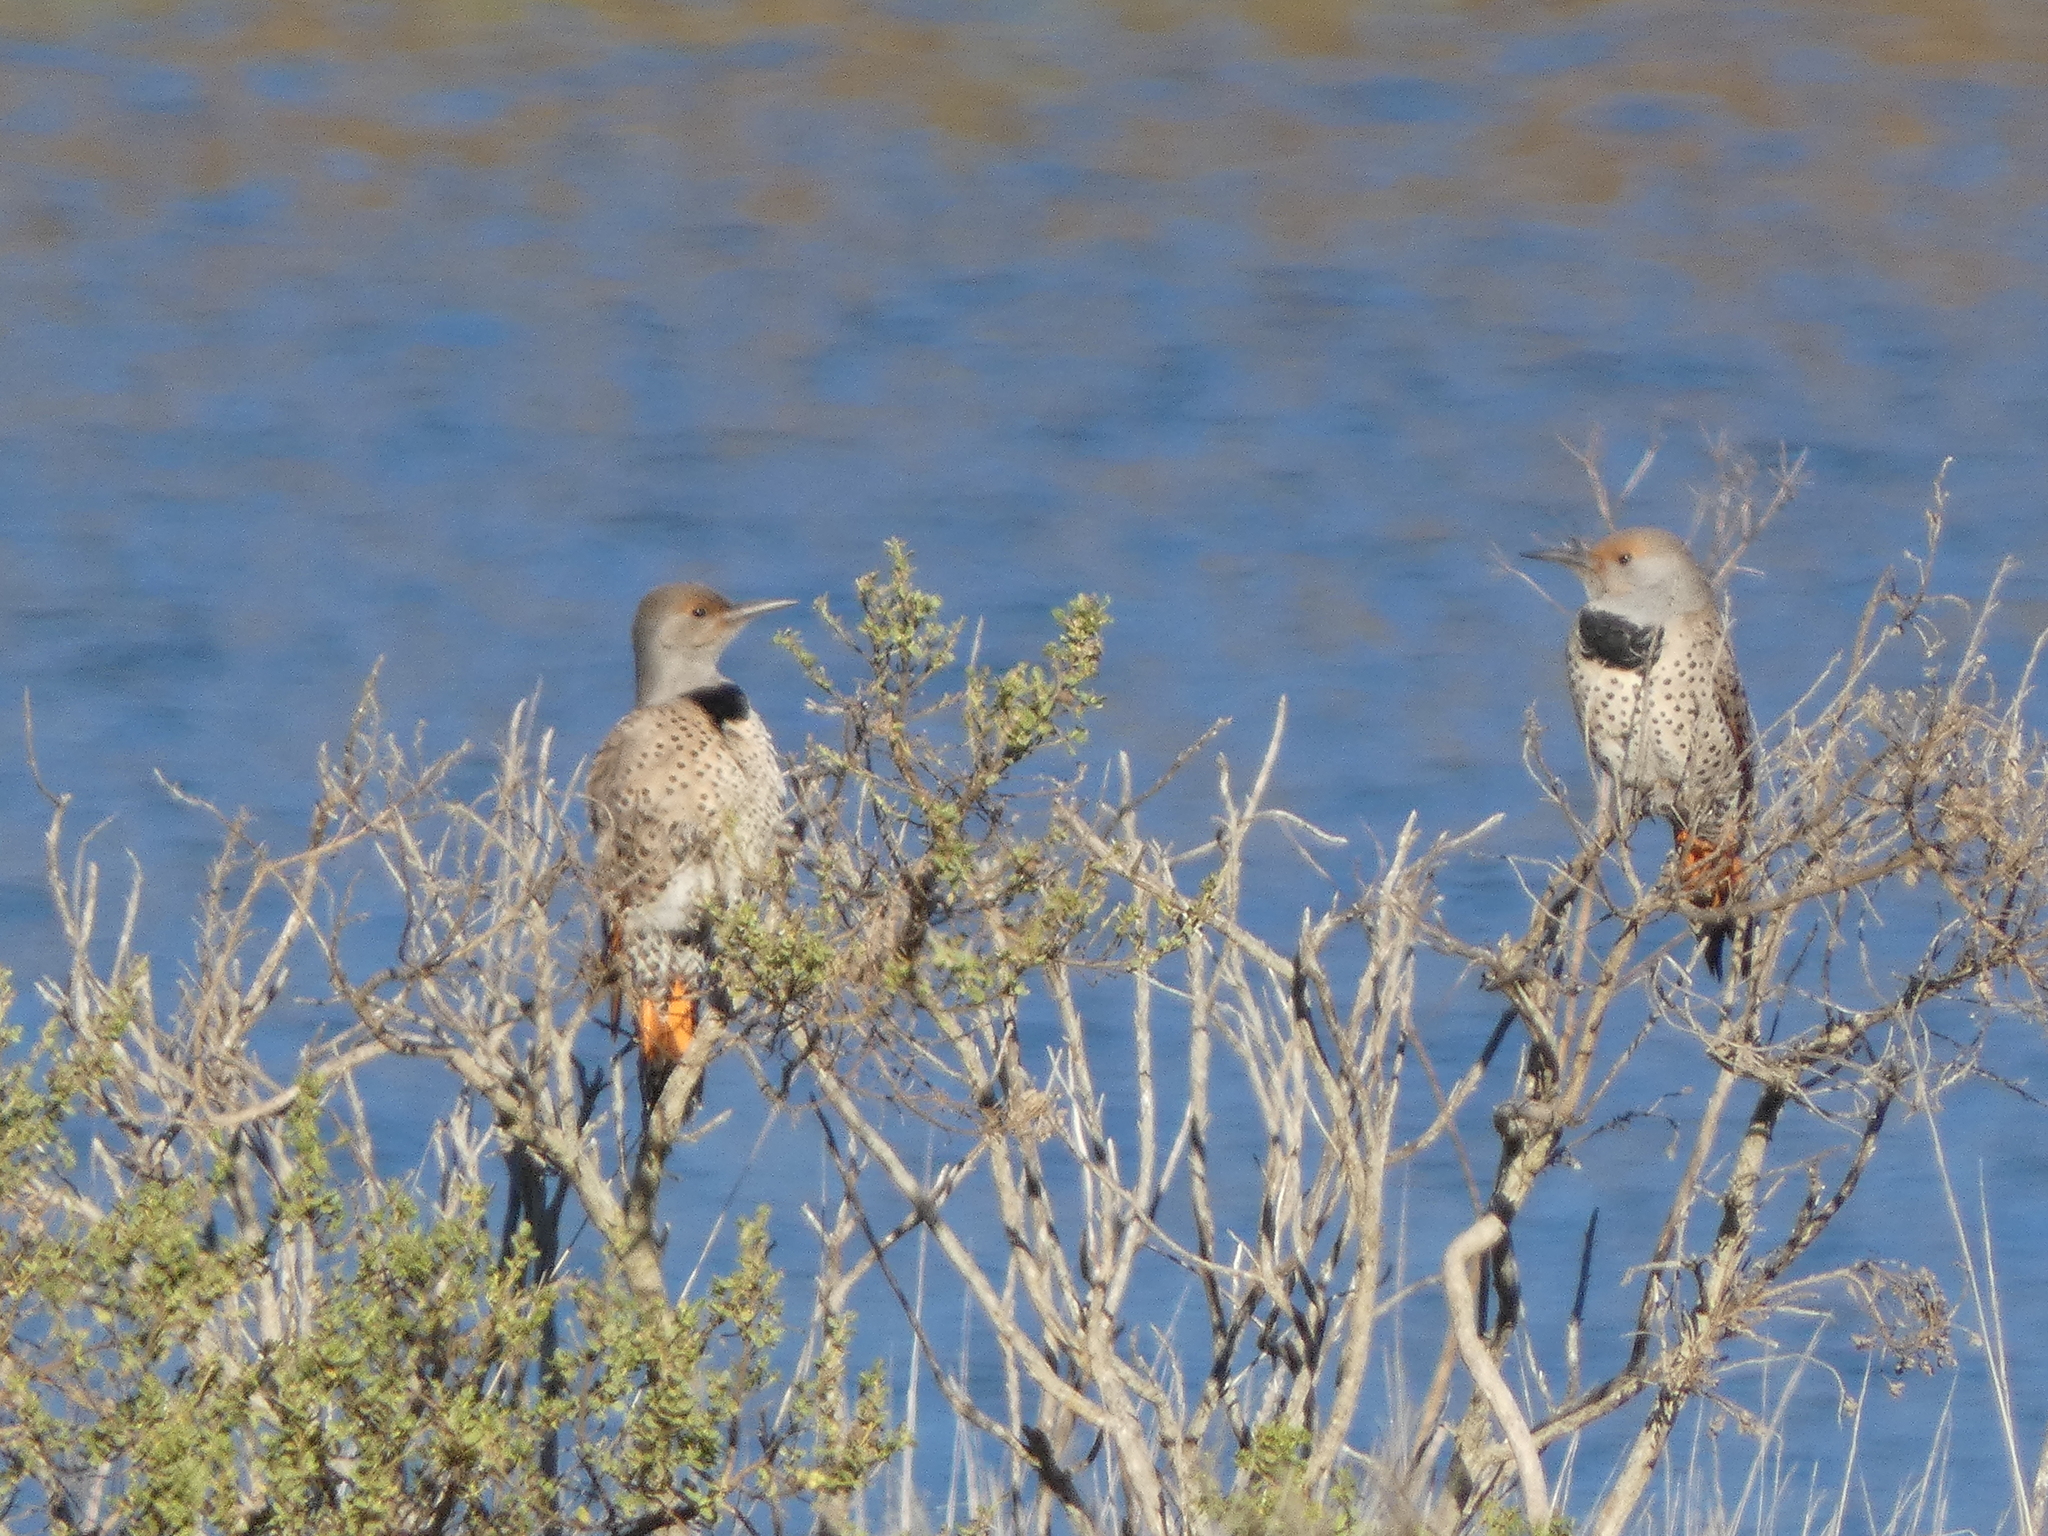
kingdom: Animalia
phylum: Chordata
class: Aves
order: Piciformes
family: Picidae
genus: Colaptes
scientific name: Colaptes auratus
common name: Northern flicker
